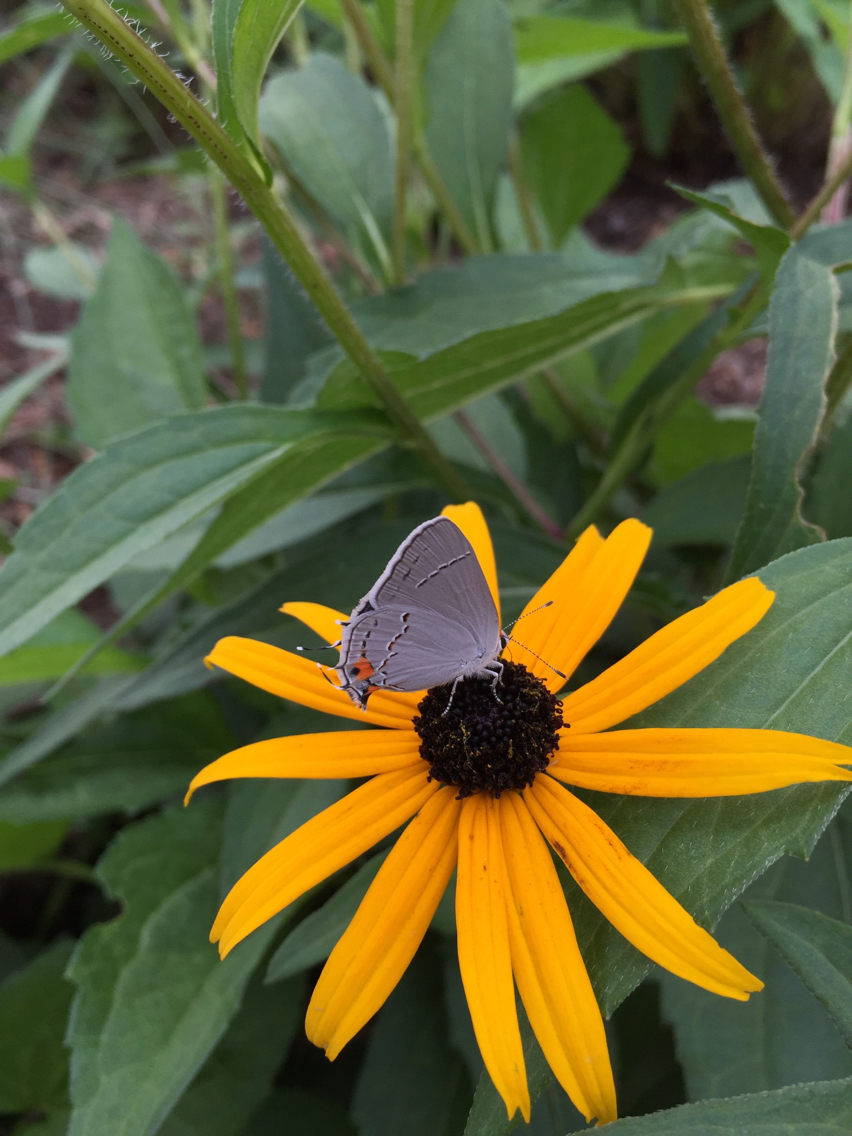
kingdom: Animalia
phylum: Arthropoda
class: Insecta
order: Lepidoptera
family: Lycaenidae
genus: Strymon
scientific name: Strymon melinus
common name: Gray hairstreak
